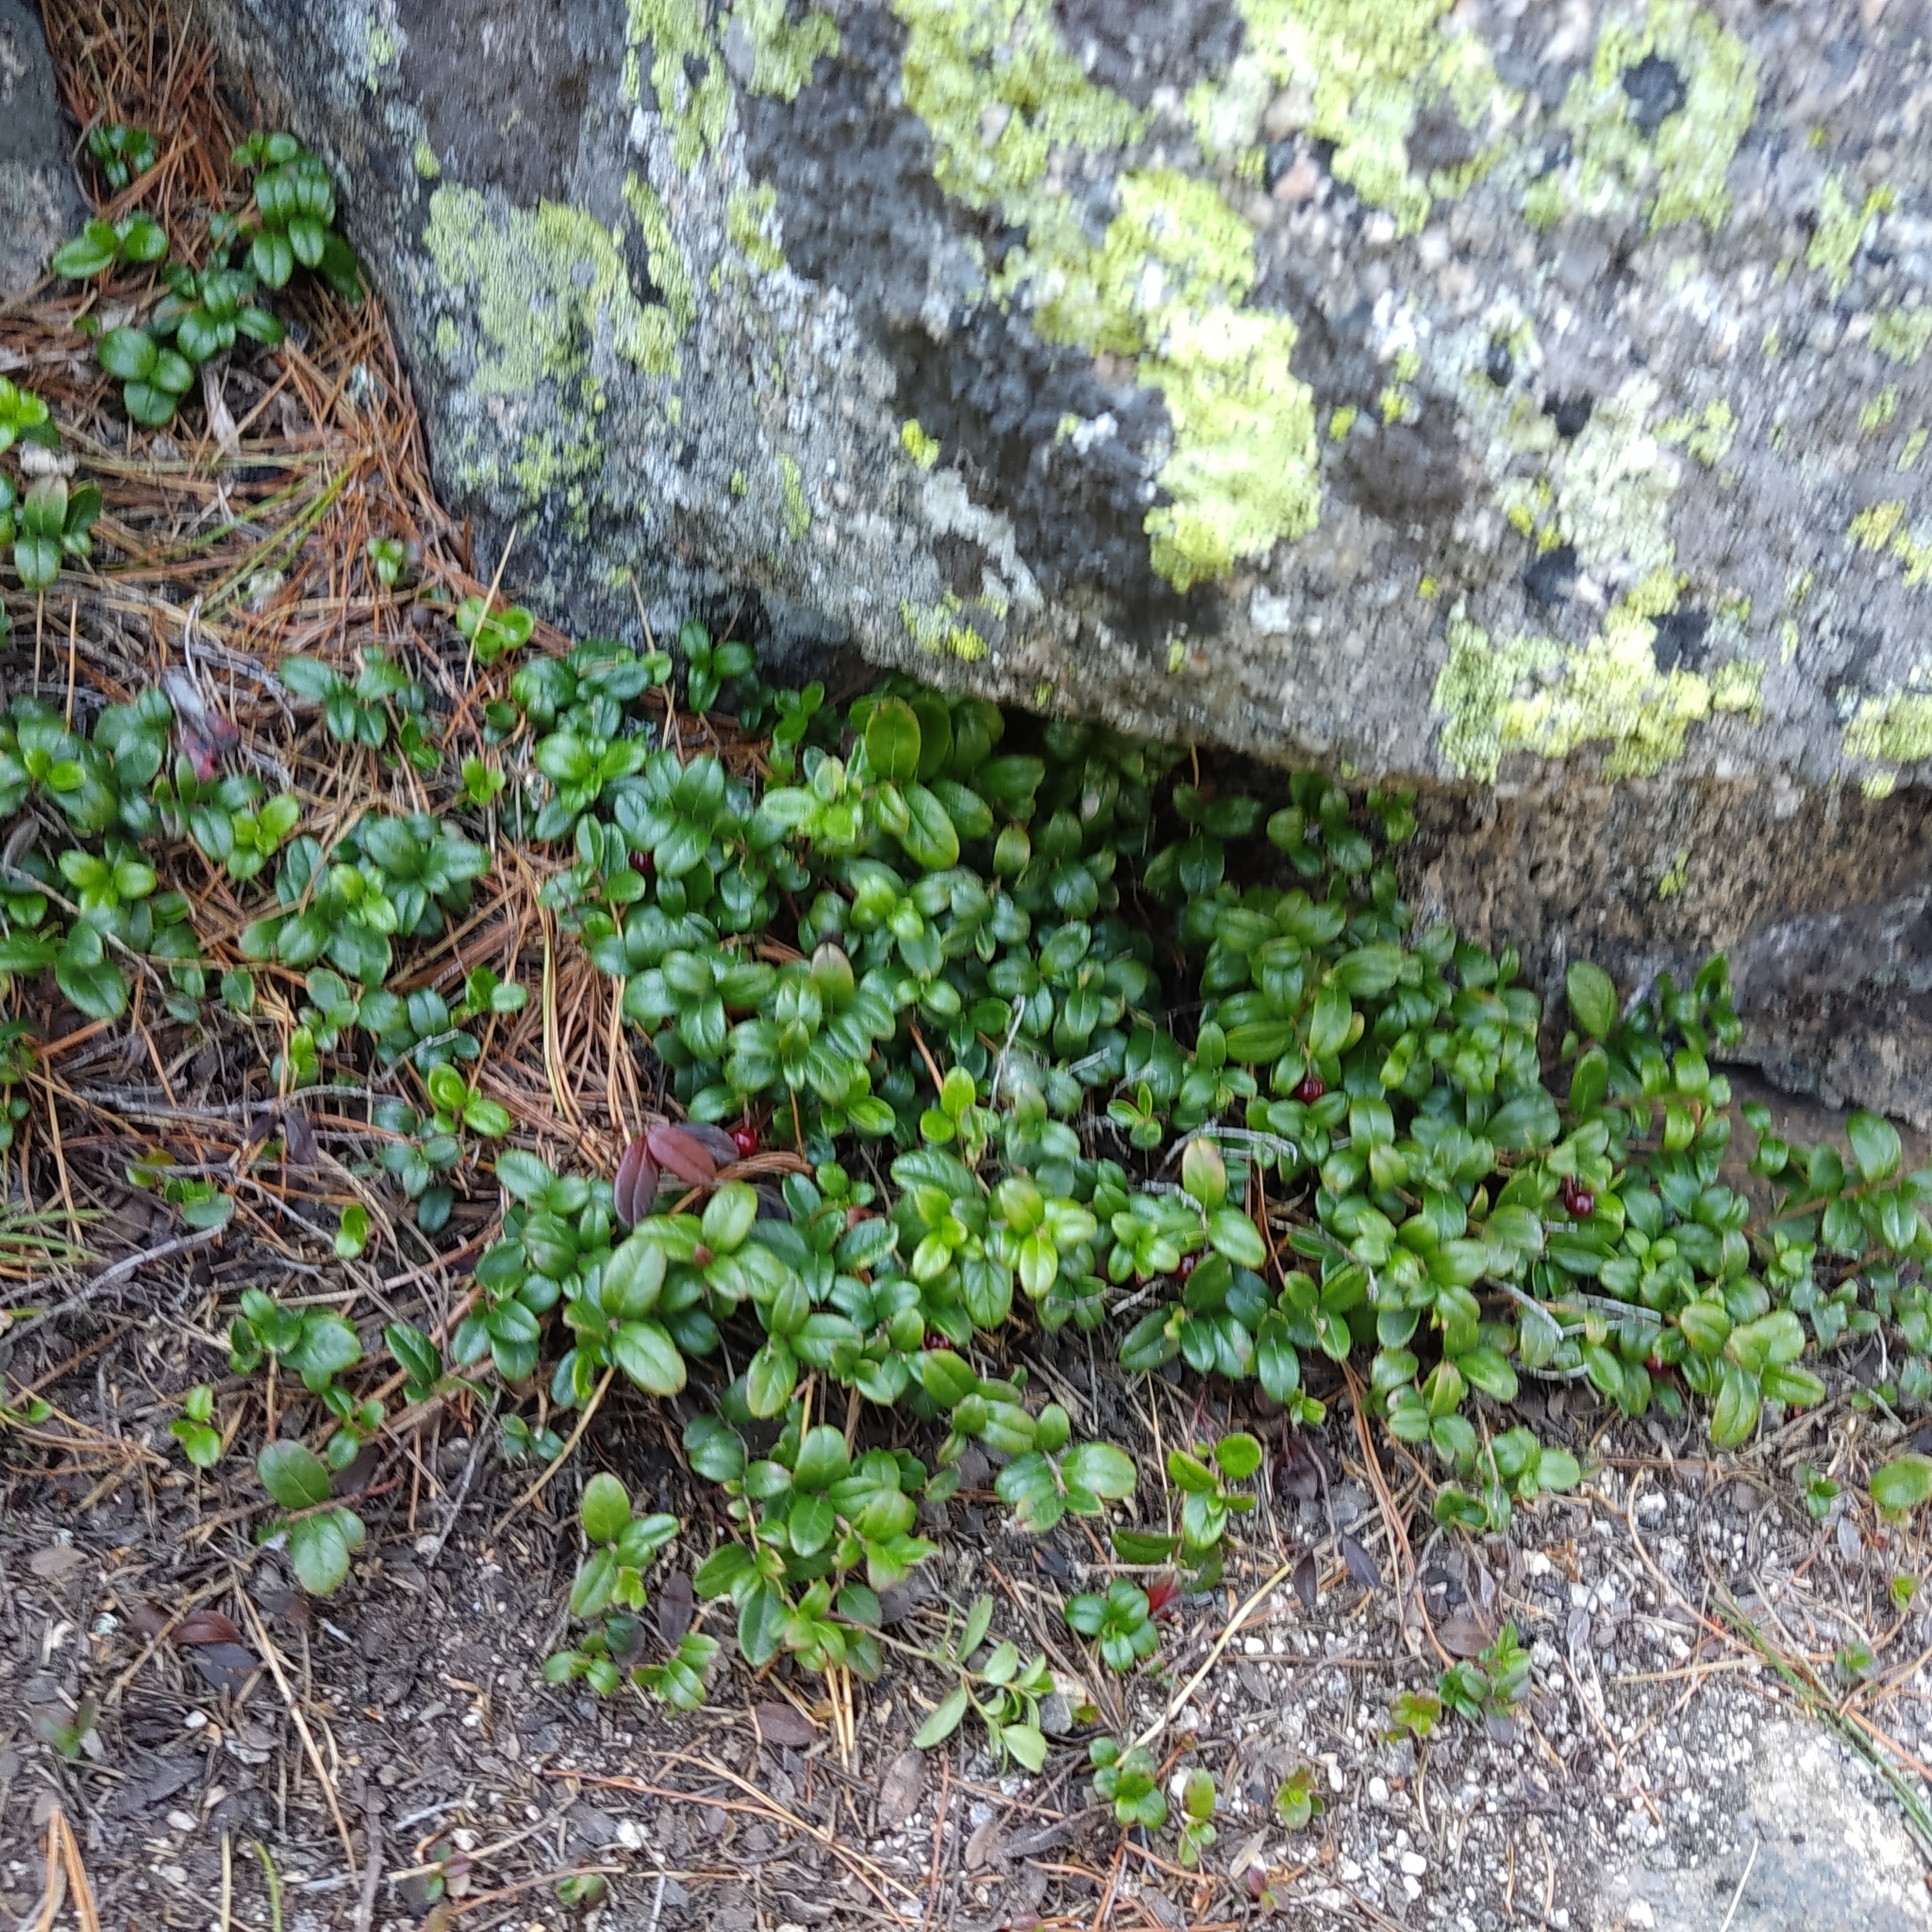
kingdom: Plantae
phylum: Tracheophyta
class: Magnoliopsida
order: Ericales
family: Ericaceae
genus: Vaccinium
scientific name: Vaccinium vitis-idaea
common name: Cowberry
